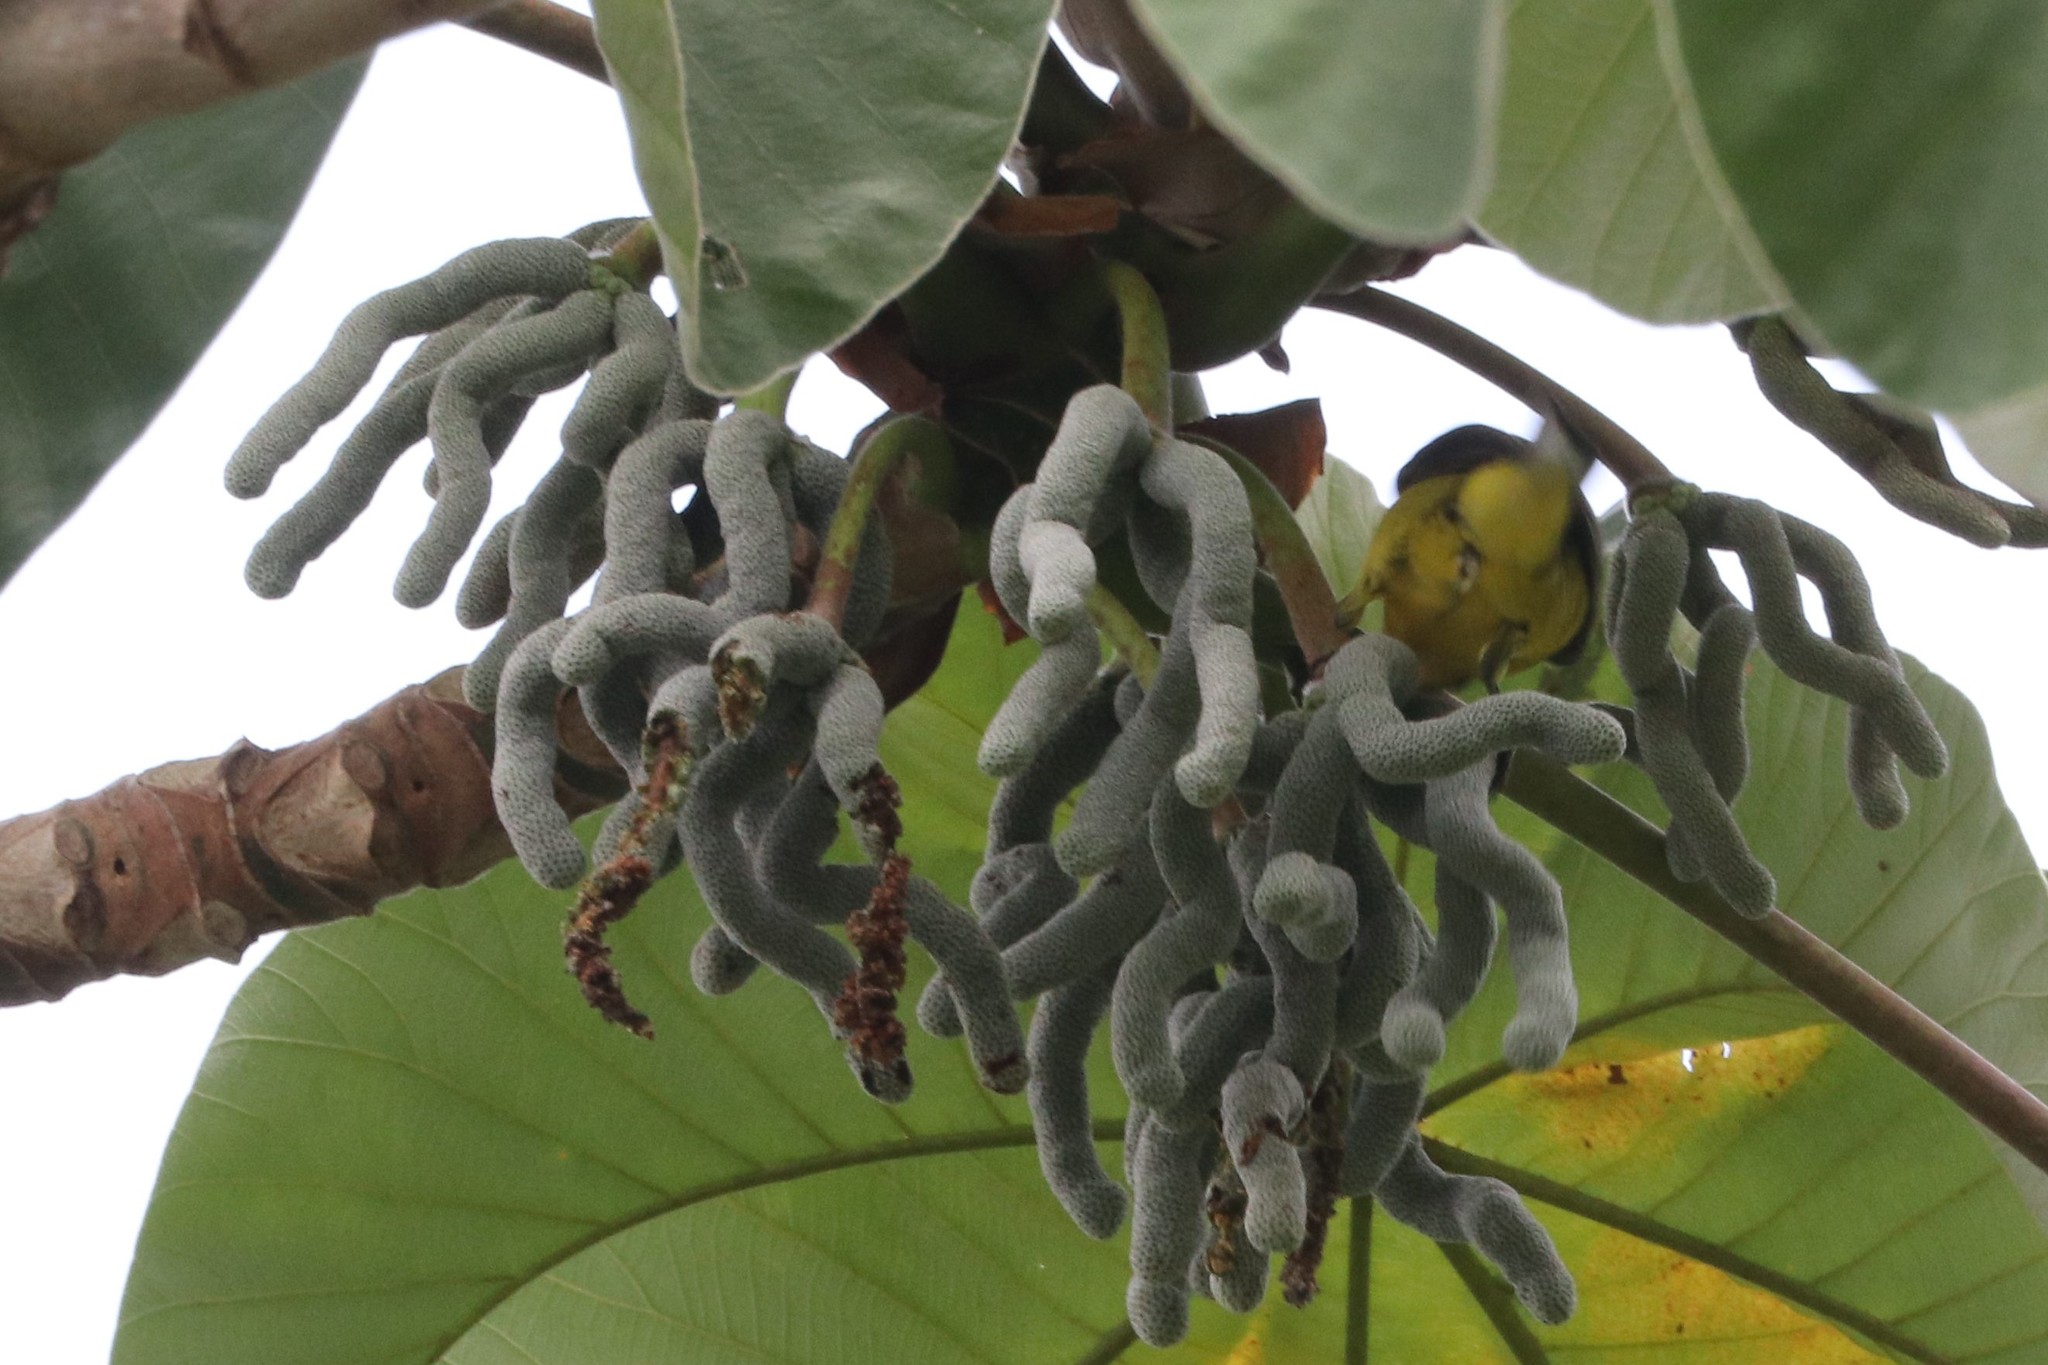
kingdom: Plantae
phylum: Tracheophyta
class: Magnoliopsida
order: Rosales
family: Urticaceae
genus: Cecropia
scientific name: Cecropia peltata
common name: Trumpet-tree
